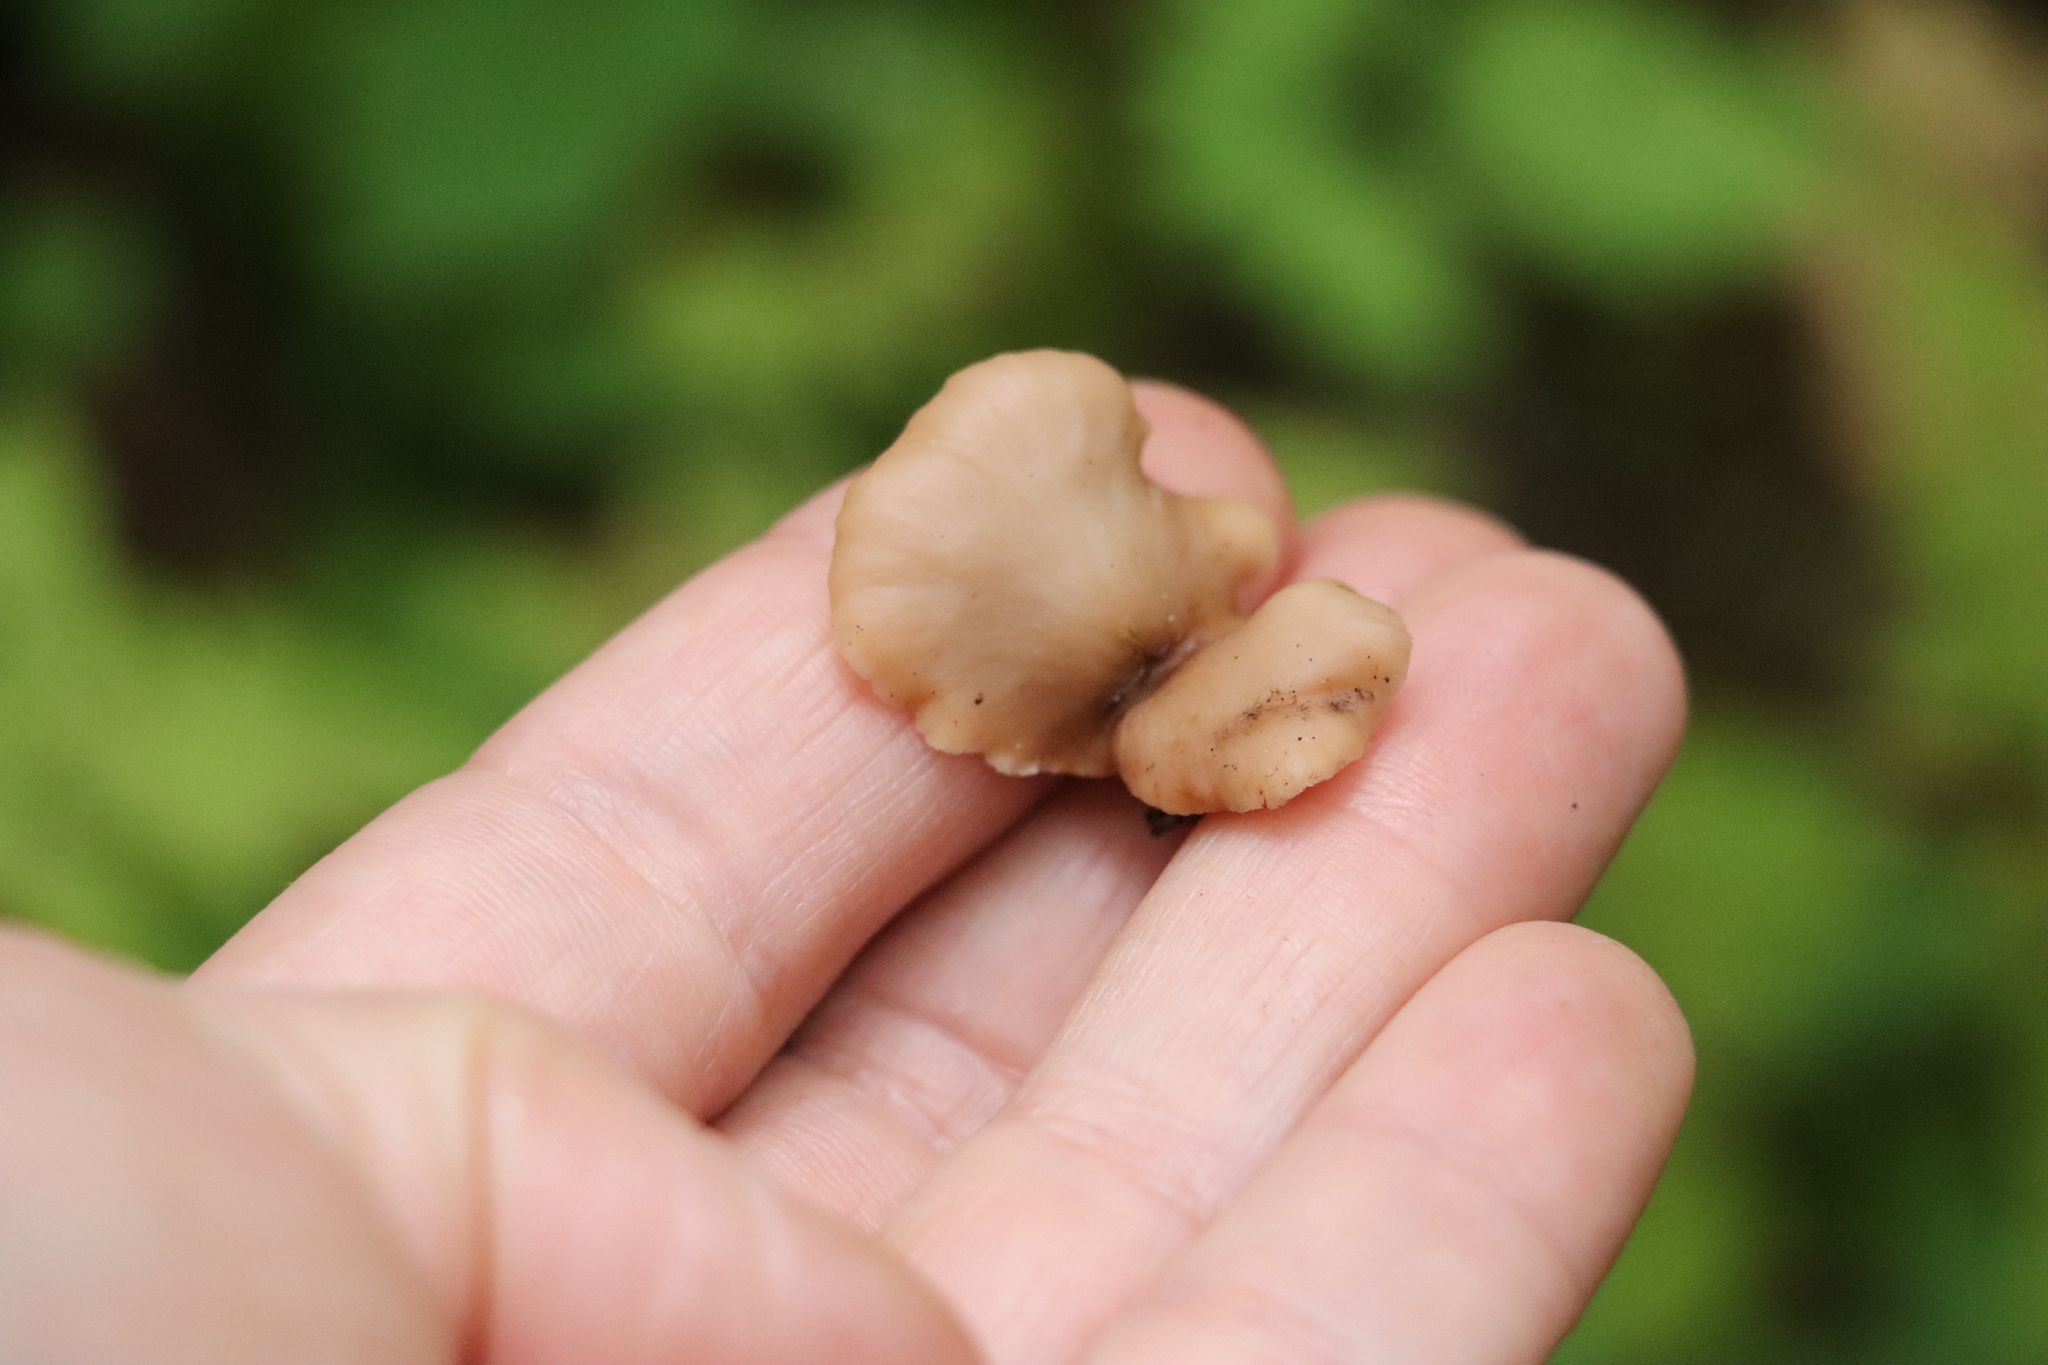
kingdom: Fungi
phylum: Basidiomycota
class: Agaricomycetes
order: Russulales
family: Auriscalpiaceae
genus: Lentinellus
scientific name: Lentinellus micheneri
